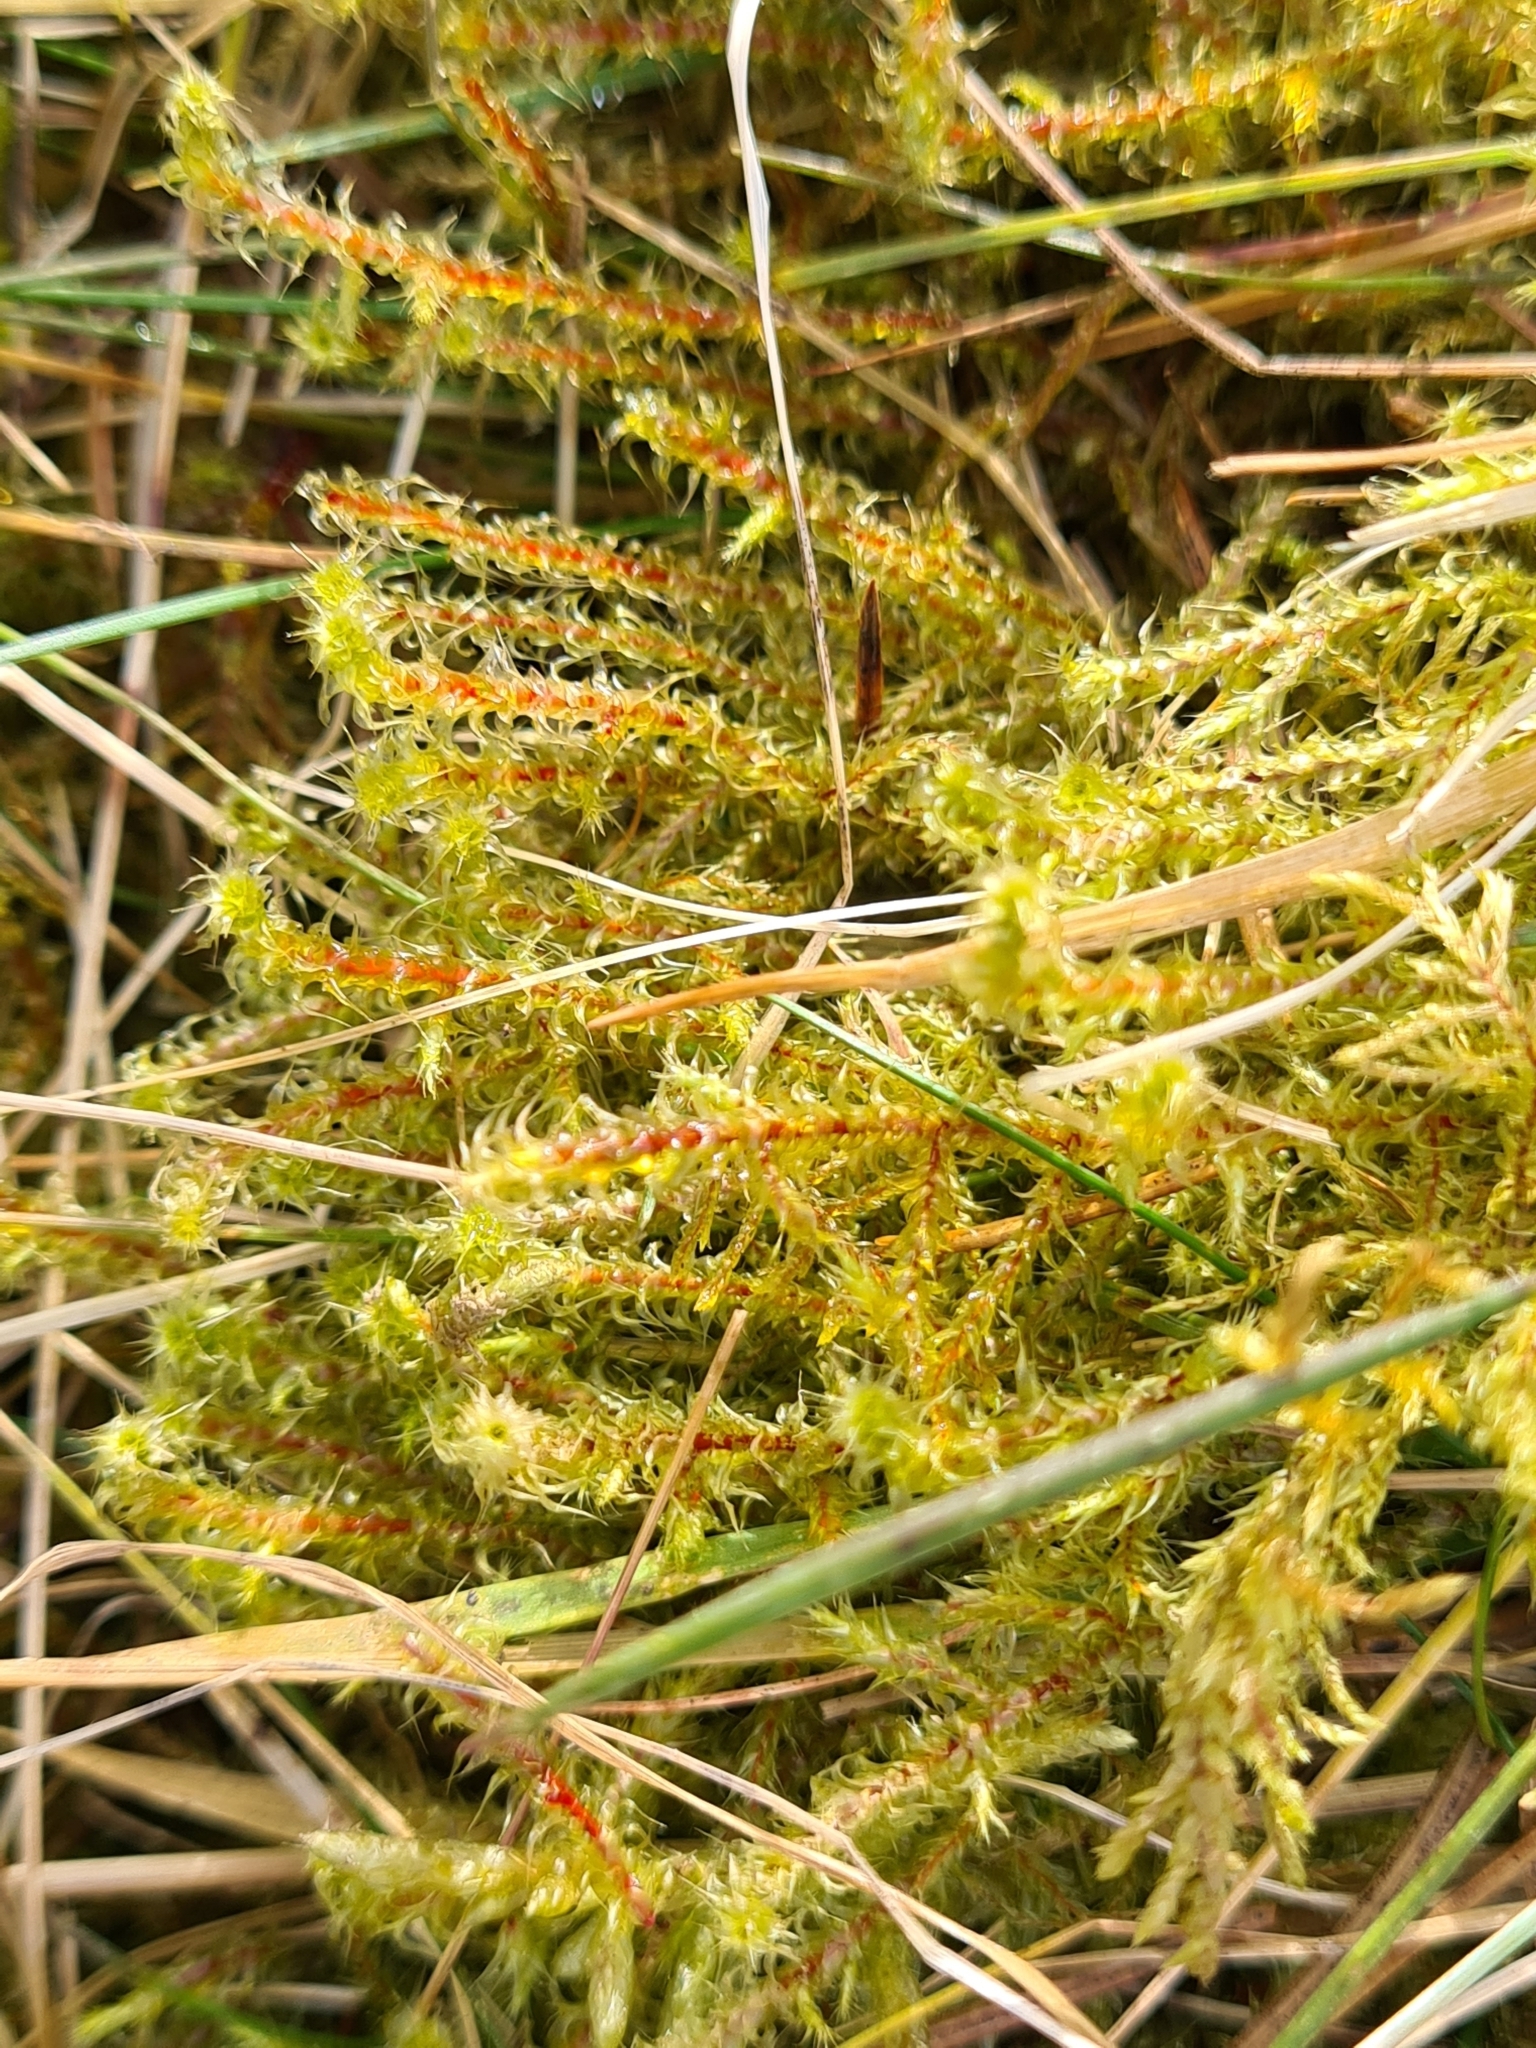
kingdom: Plantae
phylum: Bryophyta
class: Bryopsida
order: Hypnales
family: Hylocomiaceae
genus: Rhytidiadelphus
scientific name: Rhytidiadelphus squarrosus
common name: Springy turf-moss
